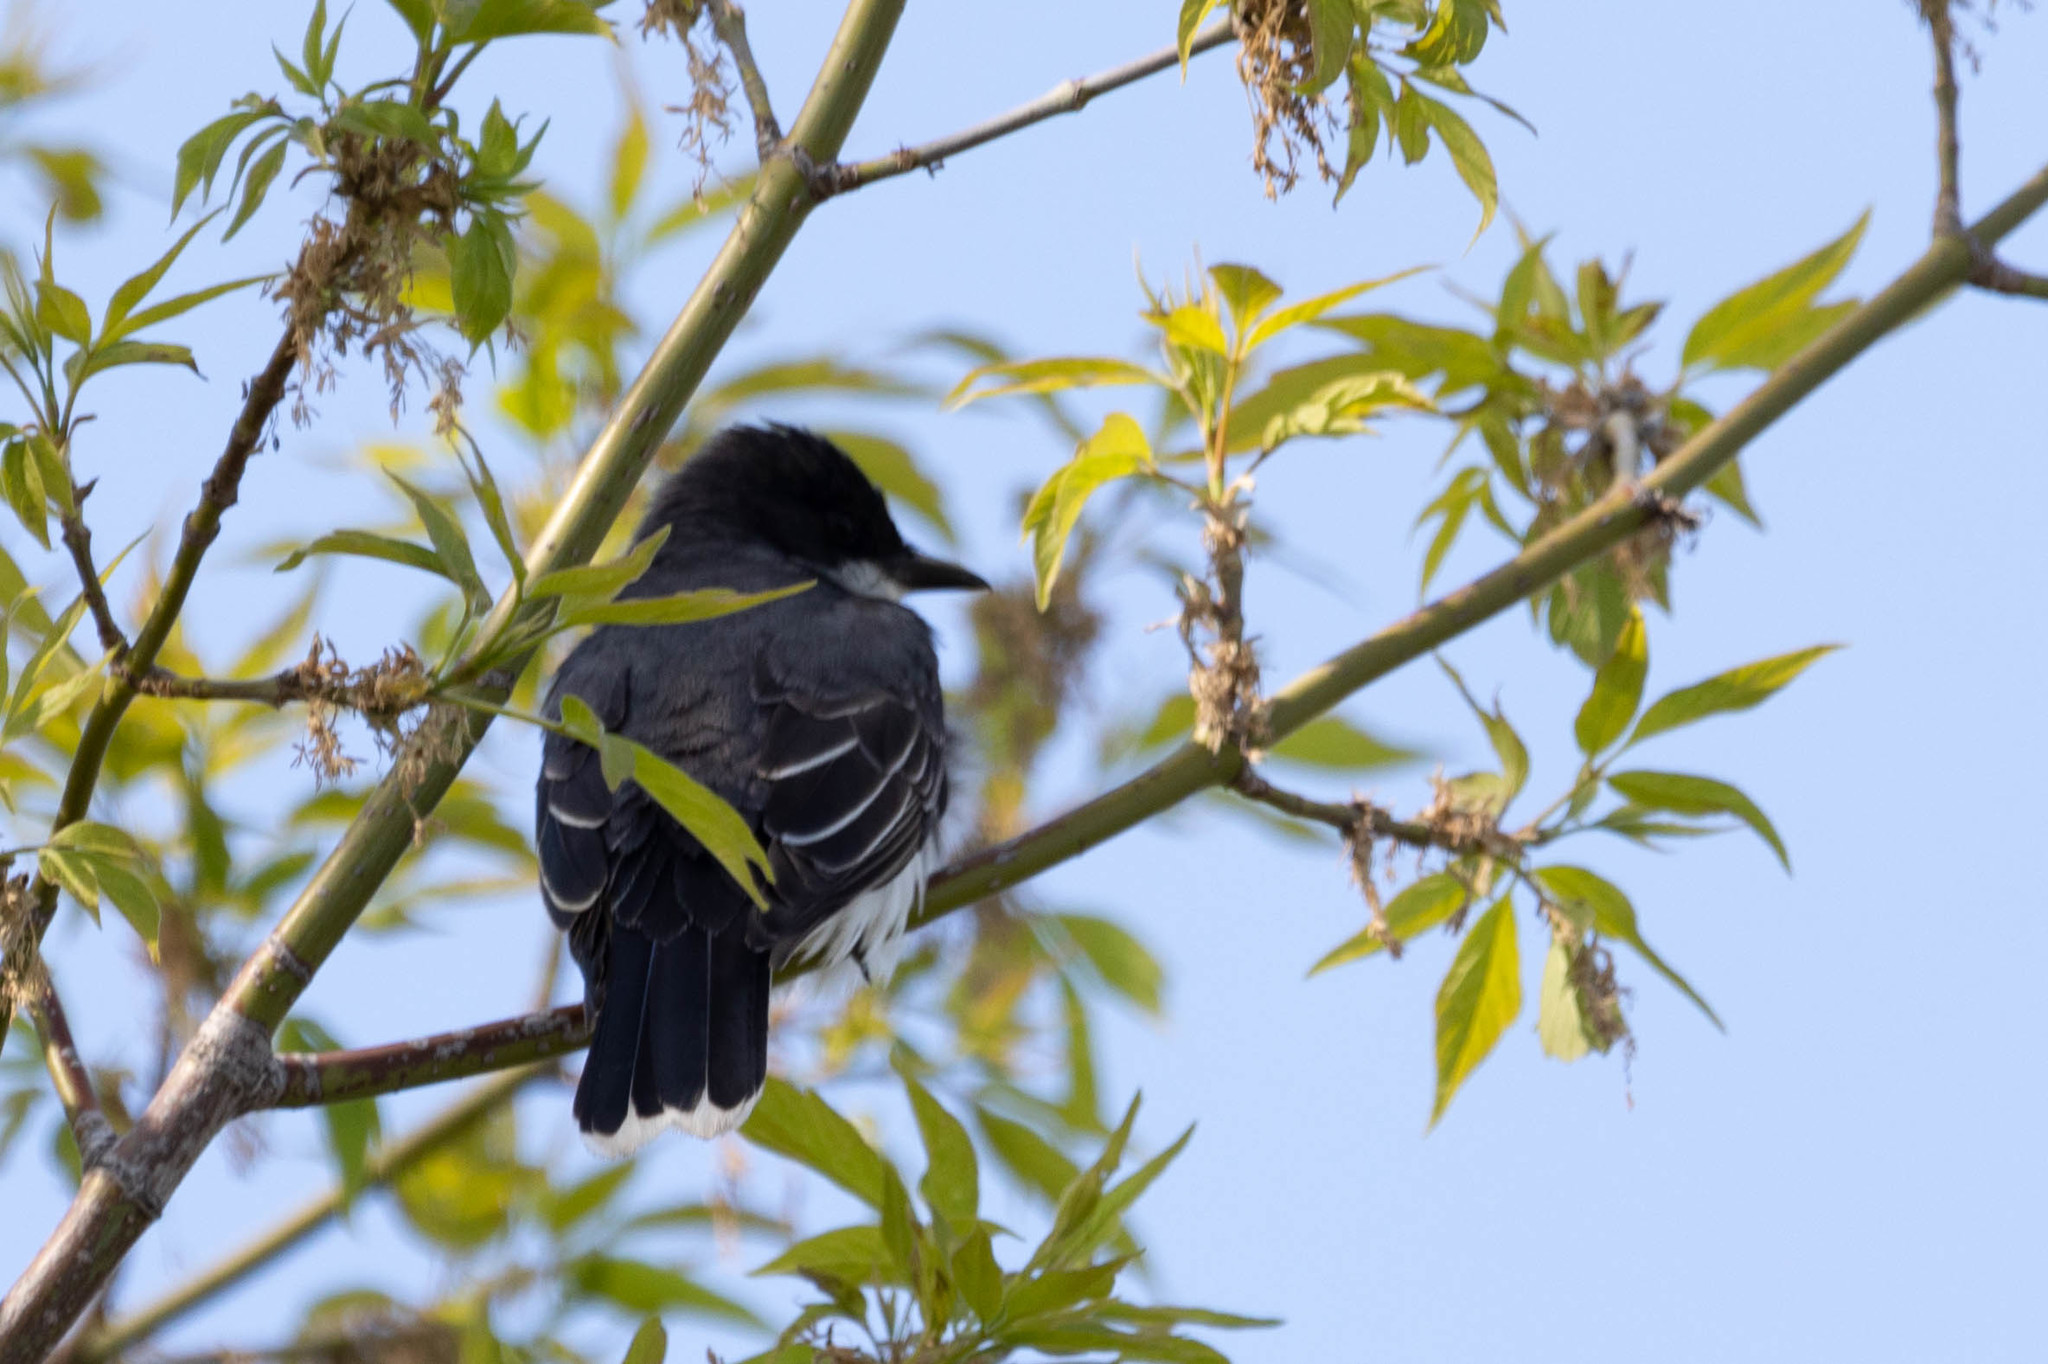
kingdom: Animalia
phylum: Chordata
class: Aves
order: Passeriformes
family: Tyrannidae
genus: Tyrannus
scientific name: Tyrannus tyrannus
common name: Eastern kingbird
